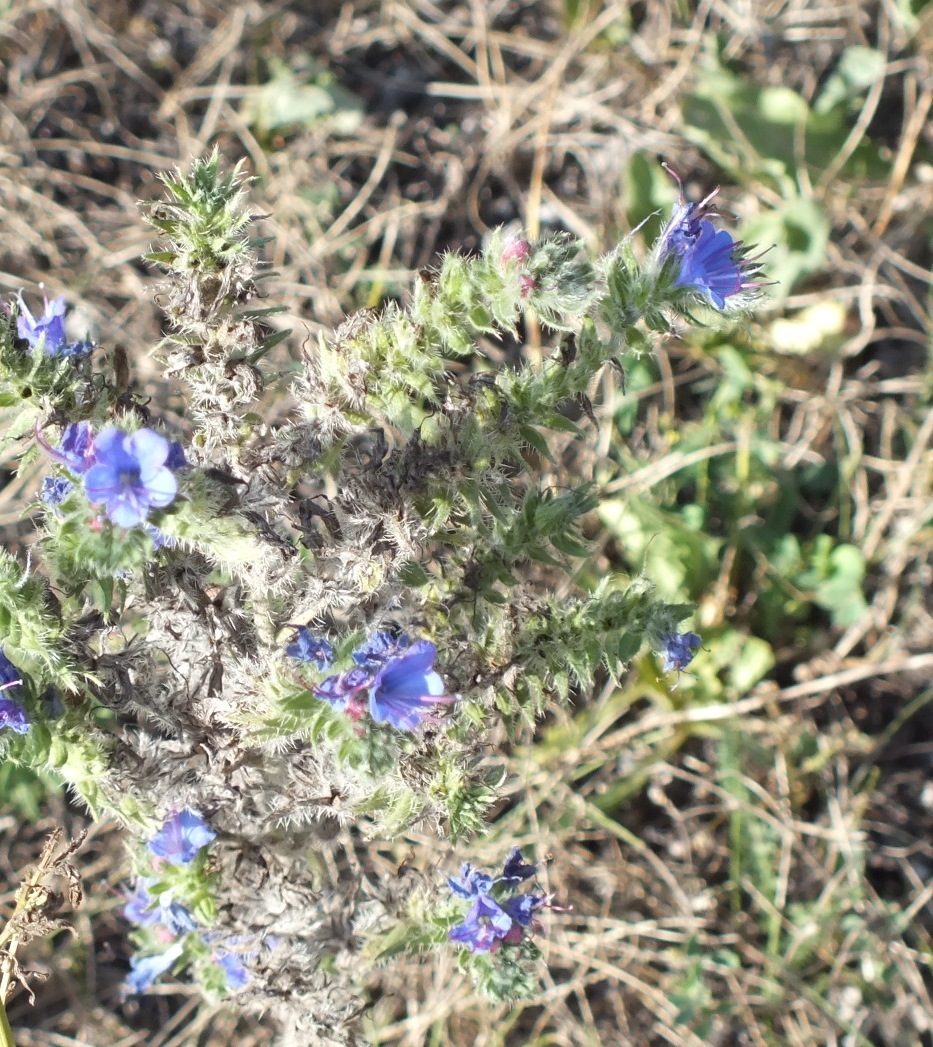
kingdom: Plantae
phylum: Tracheophyta
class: Magnoliopsida
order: Boraginales
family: Boraginaceae
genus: Echium
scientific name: Echium vulgare
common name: Common viper's bugloss
